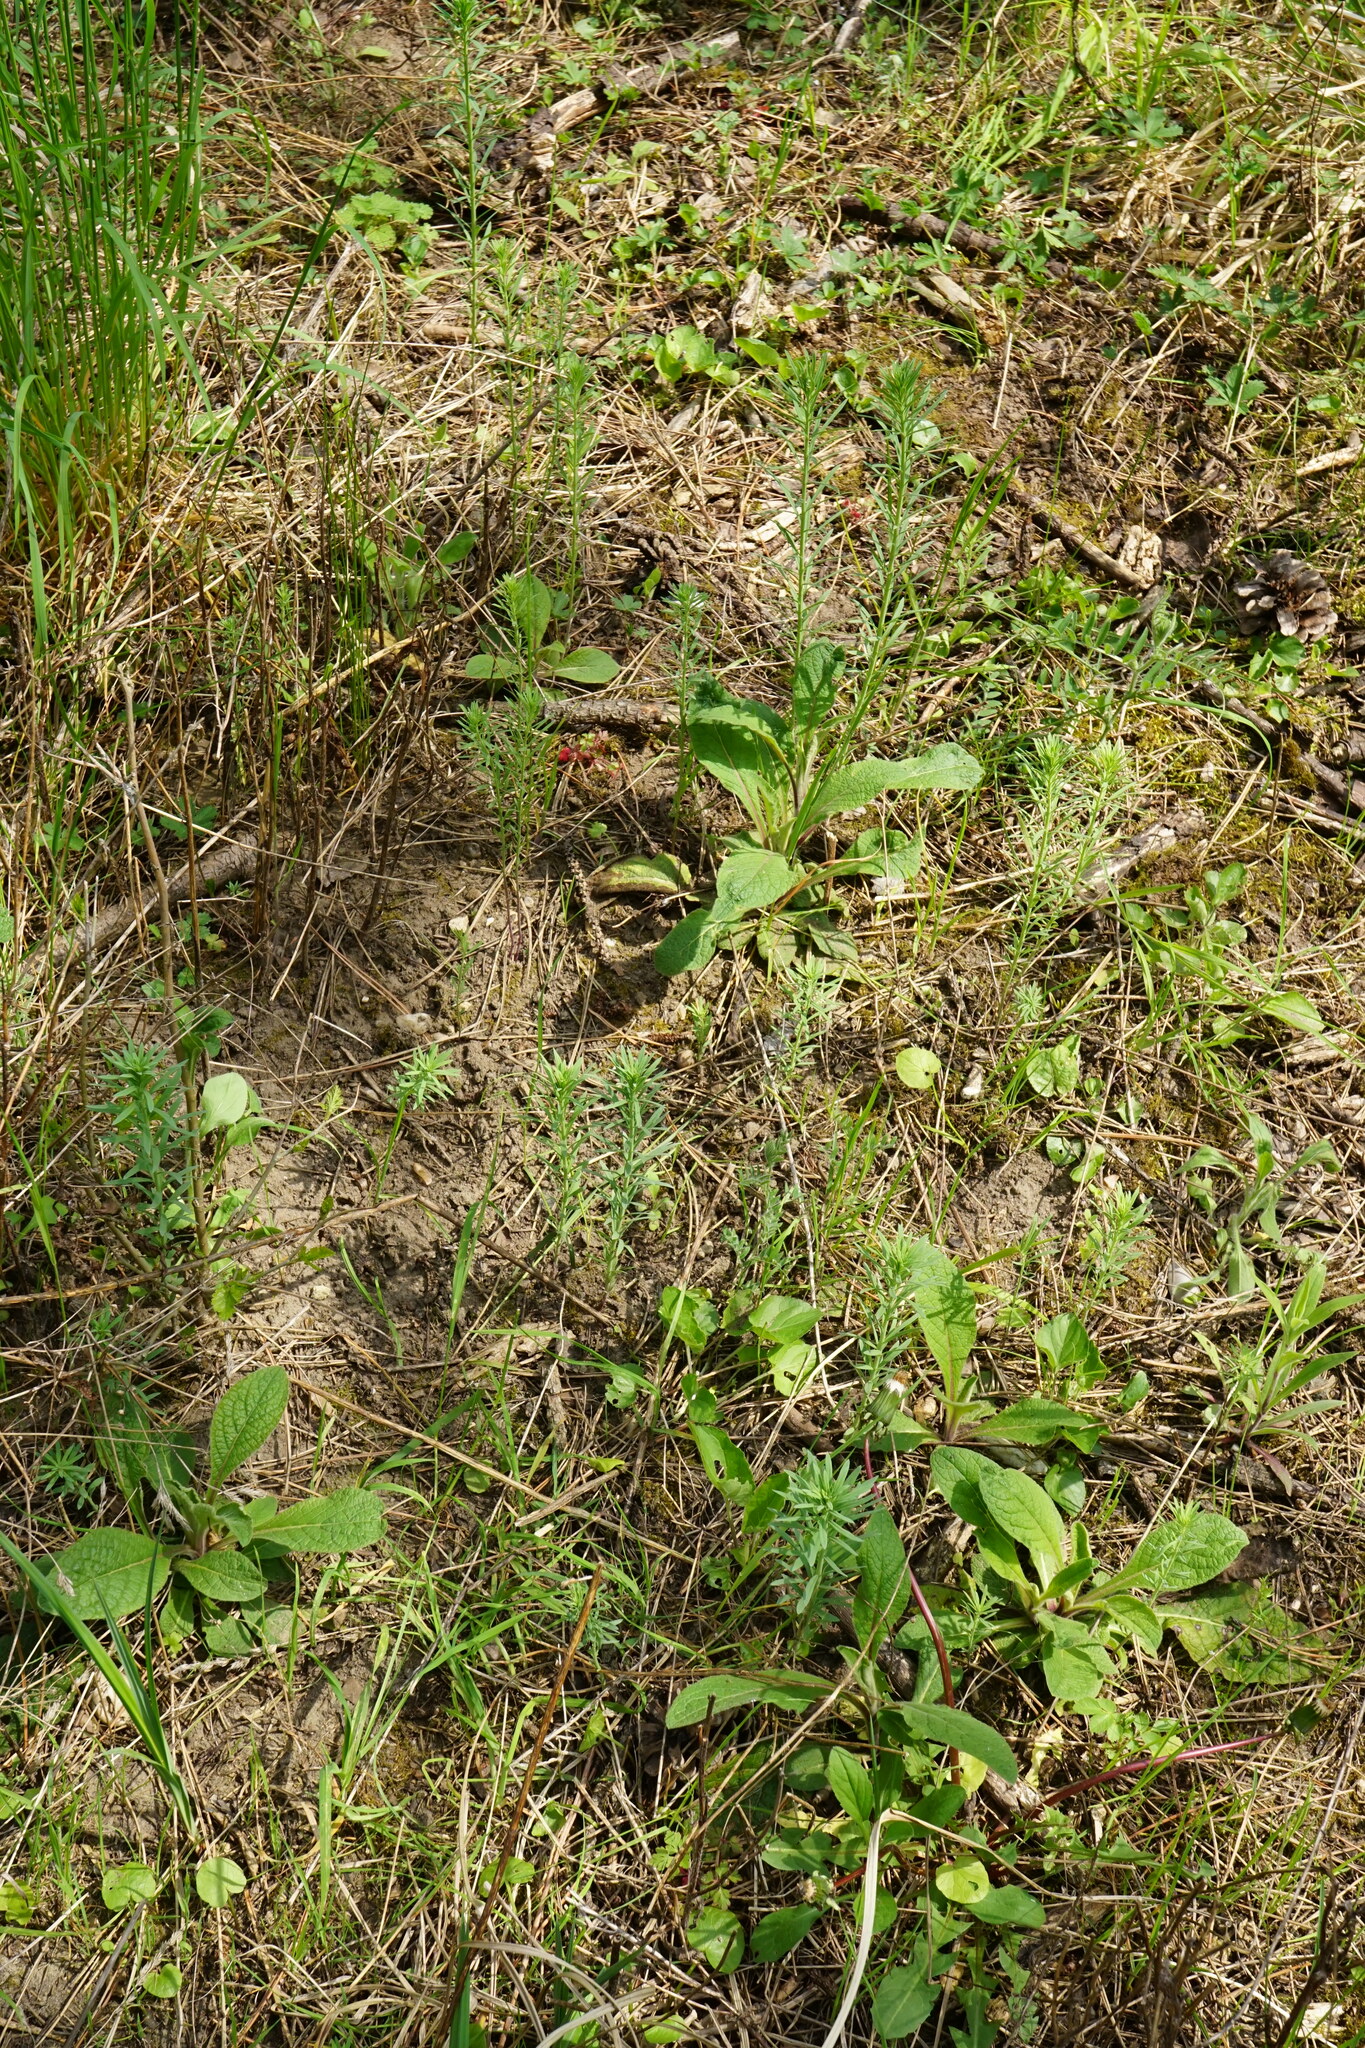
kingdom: Plantae
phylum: Tracheophyta
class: Magnoliopsida
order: Lamiales
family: Plantaginaceae
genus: Linaria
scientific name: Linaria vulgaris
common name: Butter and eggs
